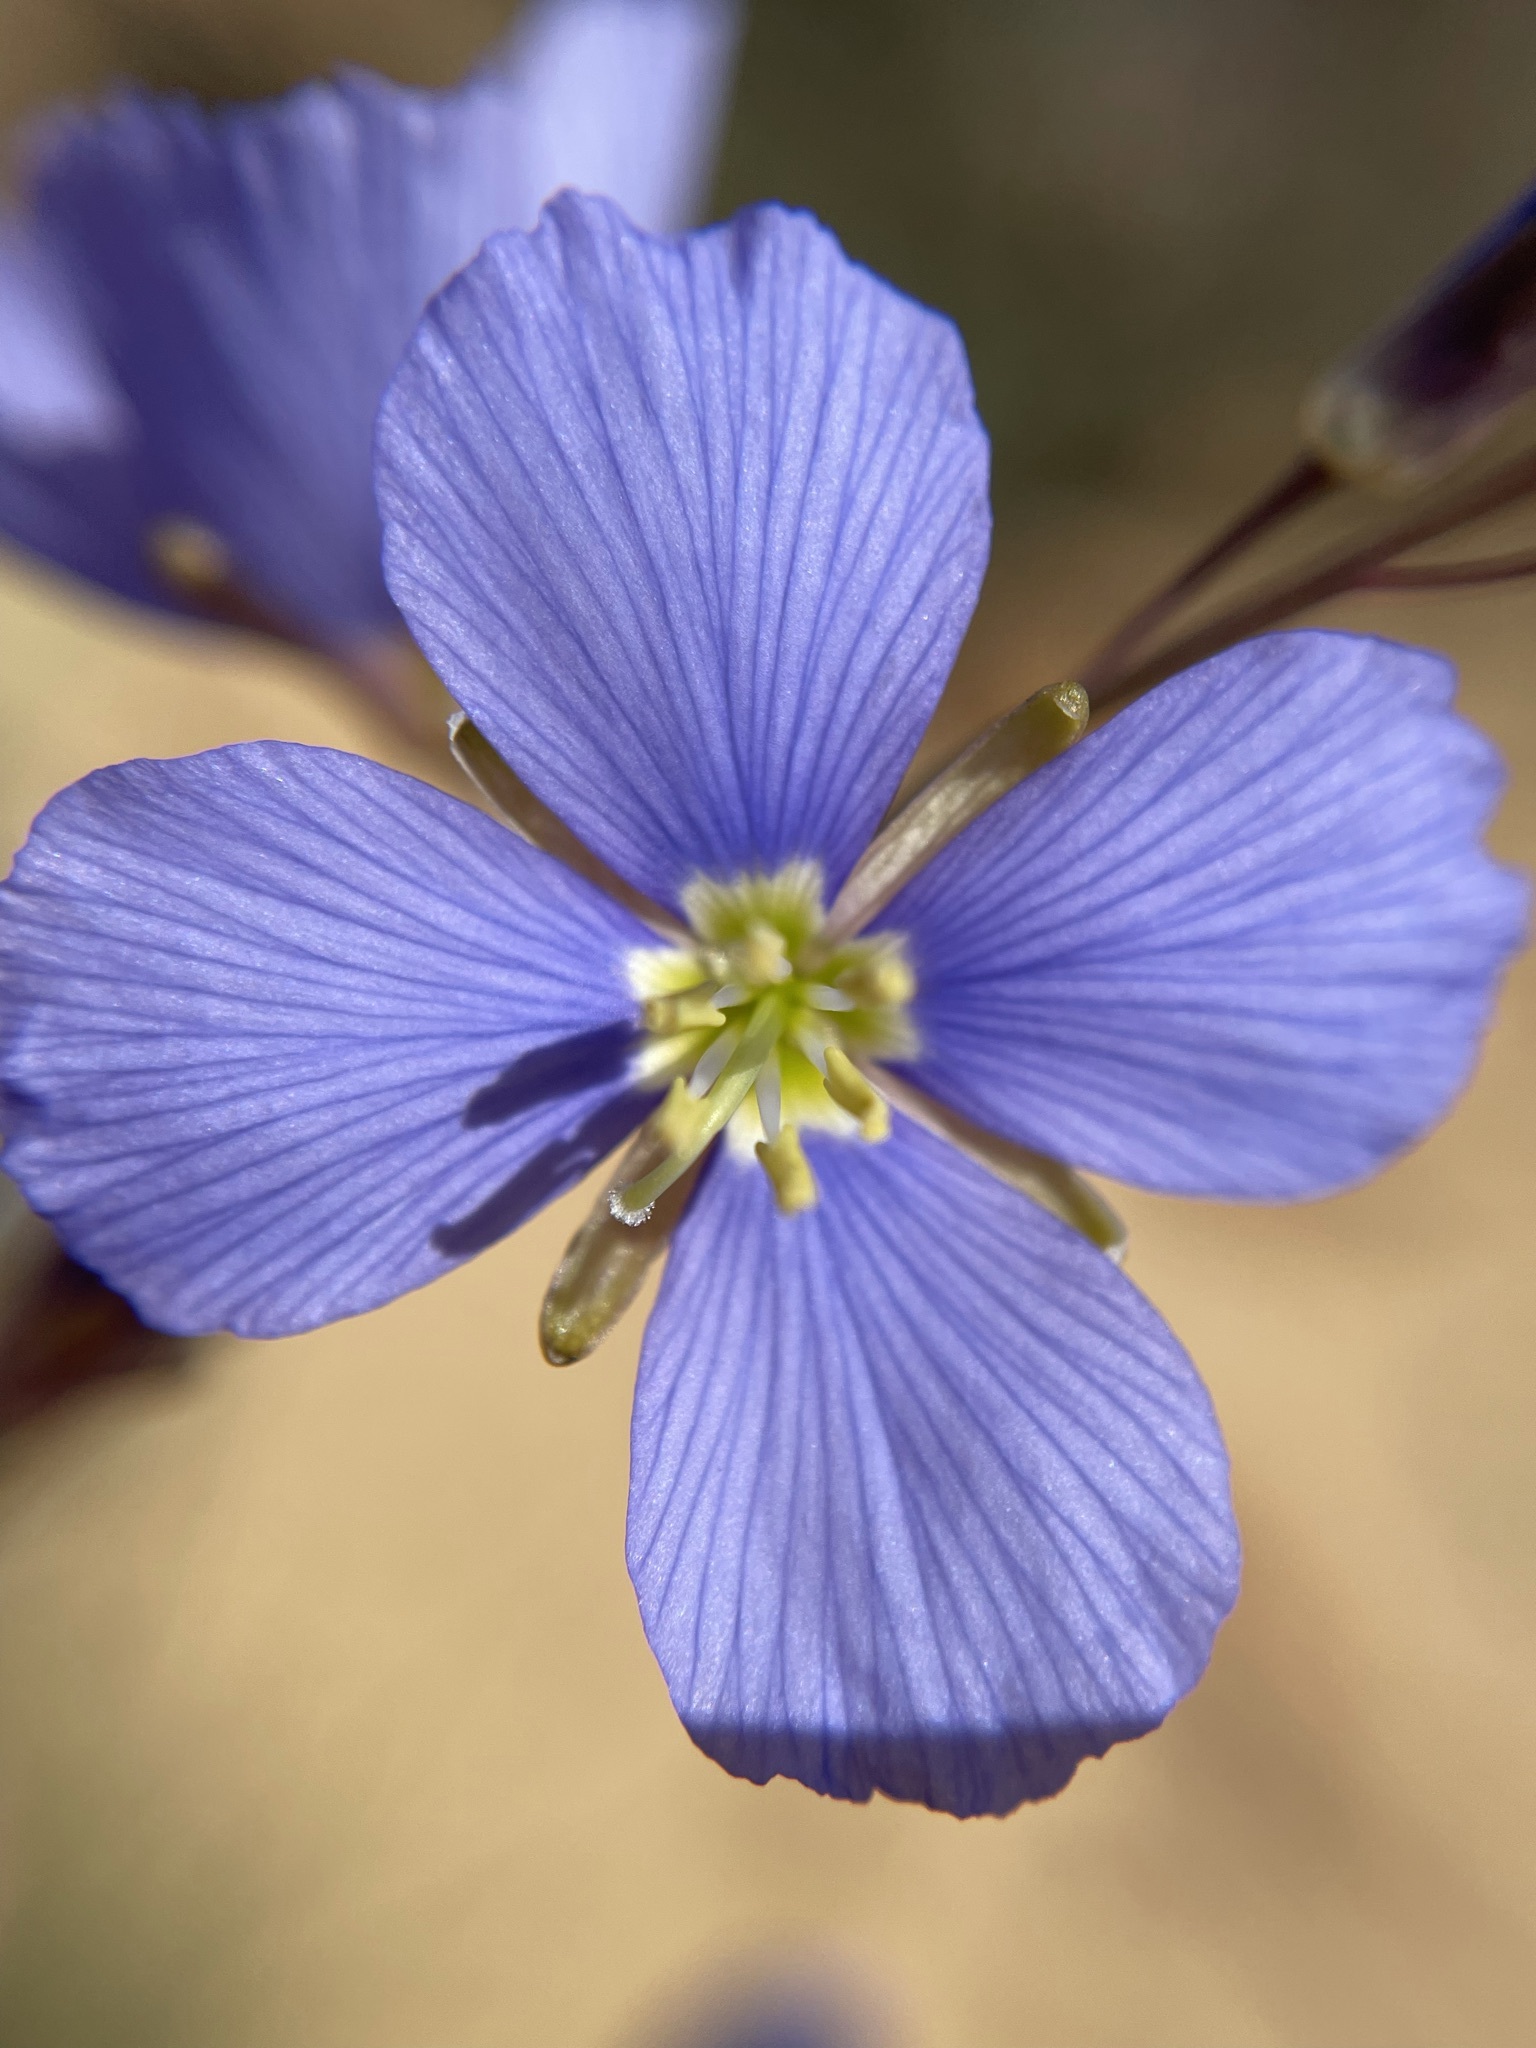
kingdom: Plantae
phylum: Tracheophyta
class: Magnoliopsida
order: Brassicales
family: Brassicaceae
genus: Heliophila
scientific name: Heliophila coronopifolia
